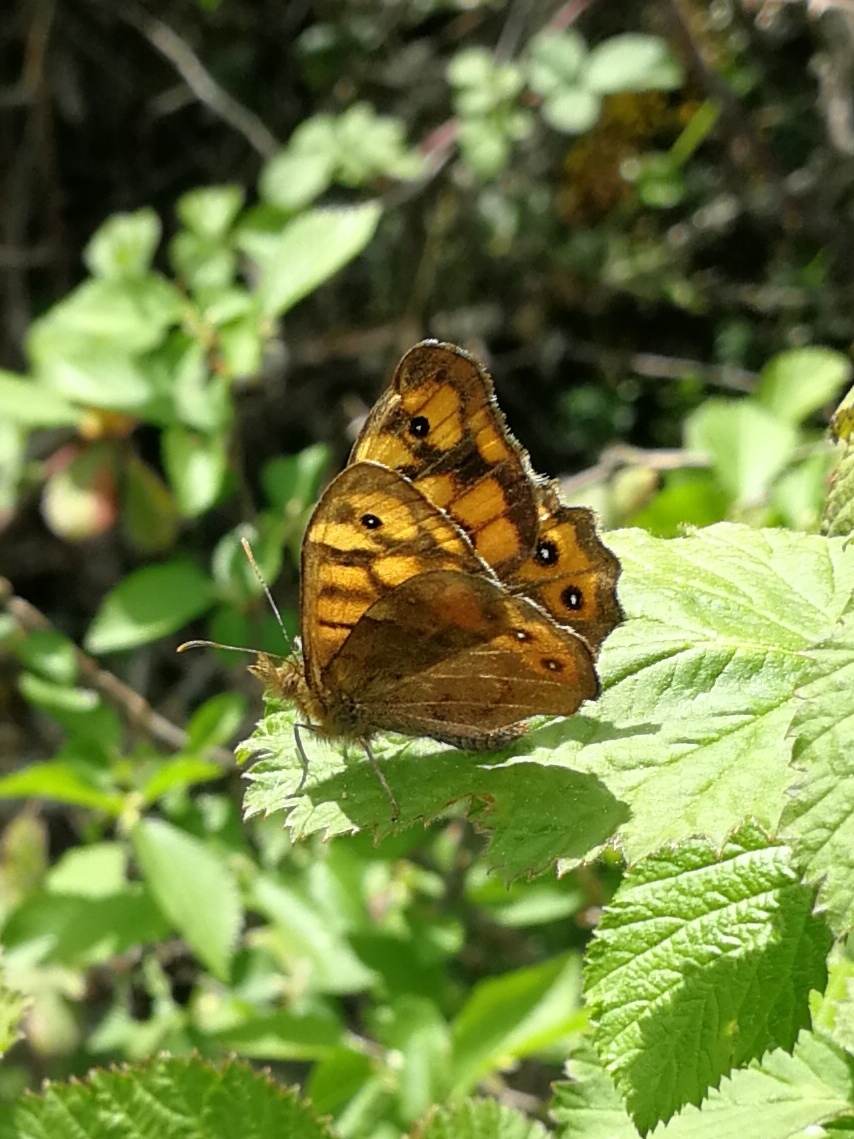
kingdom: Animalia
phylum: Arthropoda
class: Insecta
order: Lepidoptera
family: Nymphalidae
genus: Pararge
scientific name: Pararge aegeria
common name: Speckled wood
